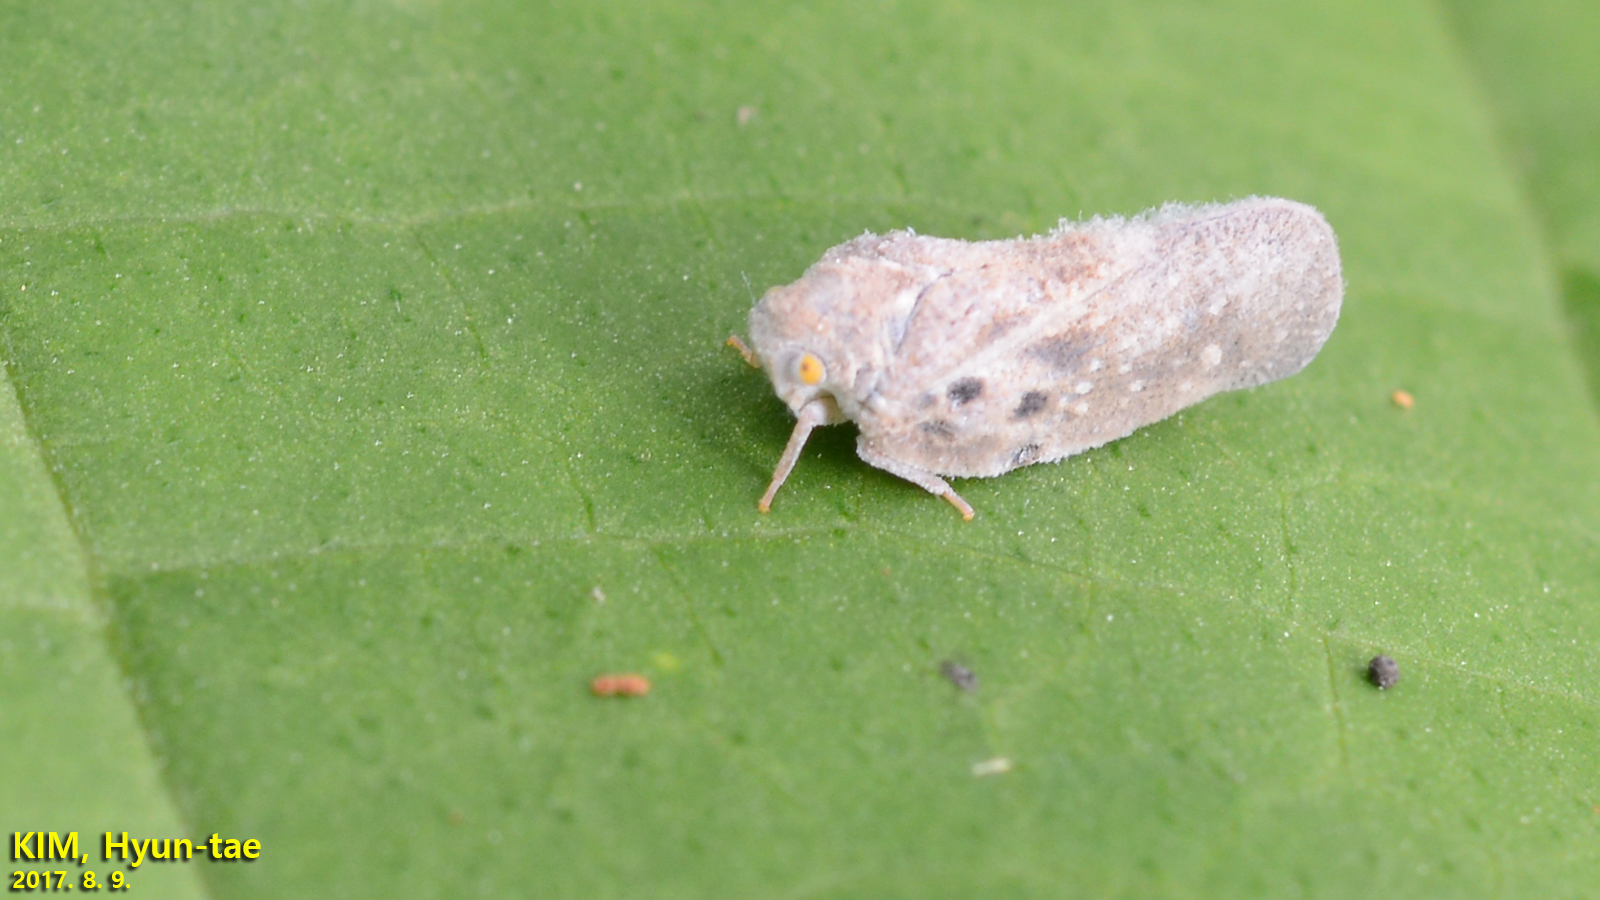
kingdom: Animalia
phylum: Arthropoda
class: Insecta
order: Hemiptera
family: Flatidae
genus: Metcalfa
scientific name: Metcalfa pruinosa
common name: Citrus flatid planthopper
